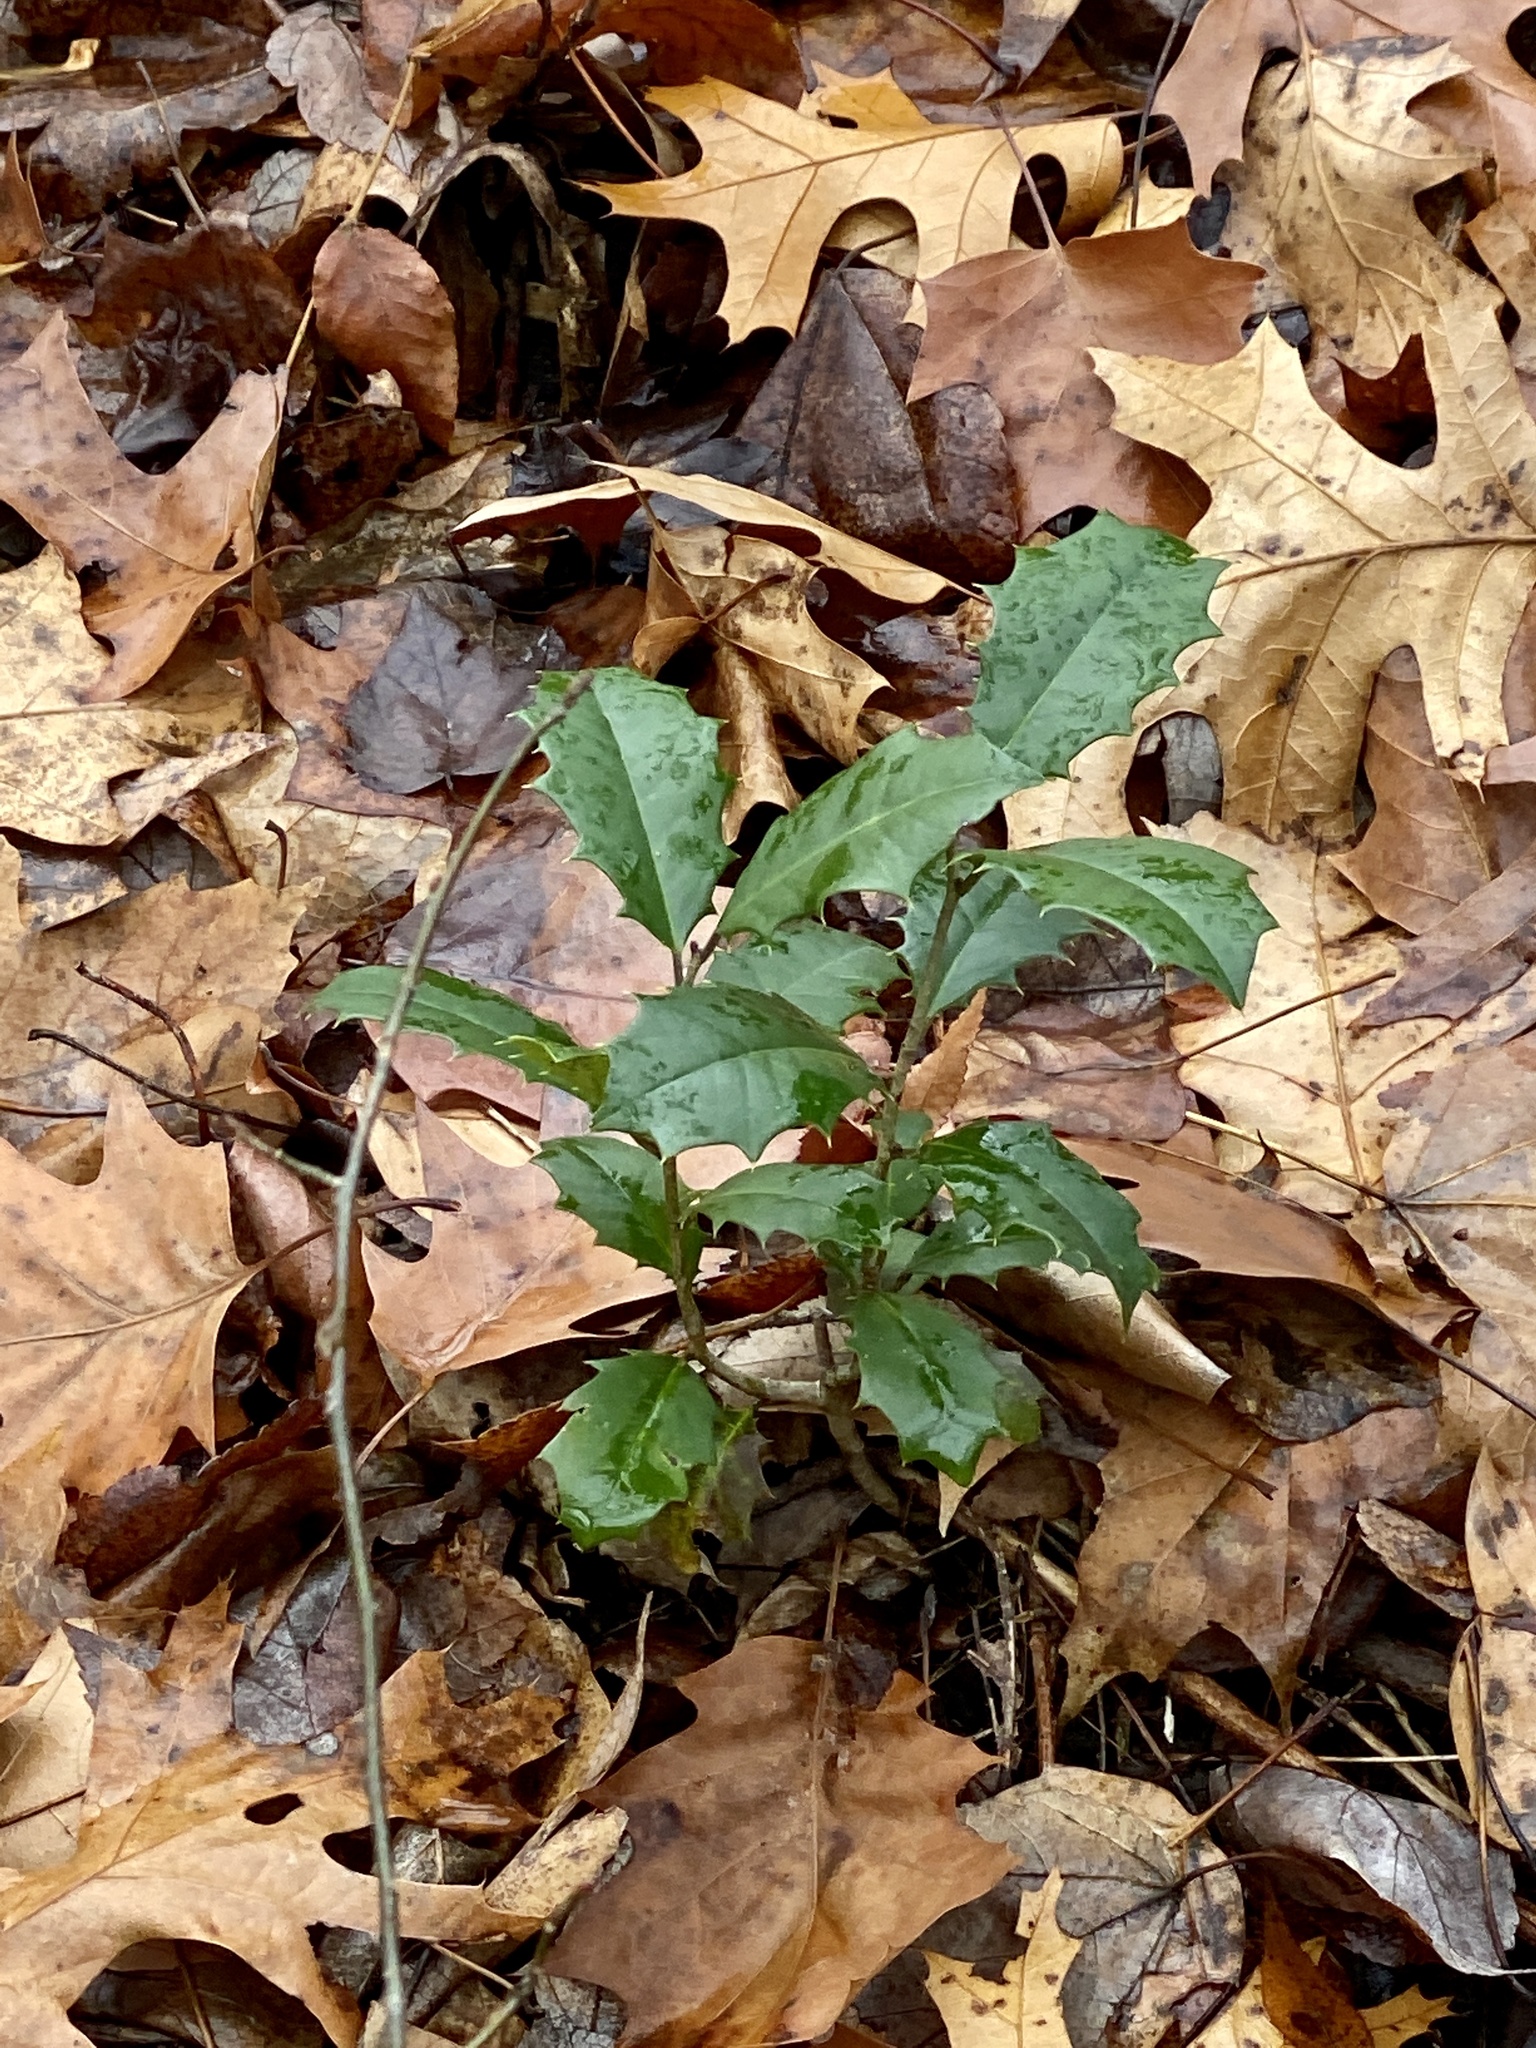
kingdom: Plantae
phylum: Tracheophyta
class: Magnoliopsida
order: Aquifoliales
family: Aquifoliaceae
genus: Ilex
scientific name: Ilex opaca
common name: American holly
